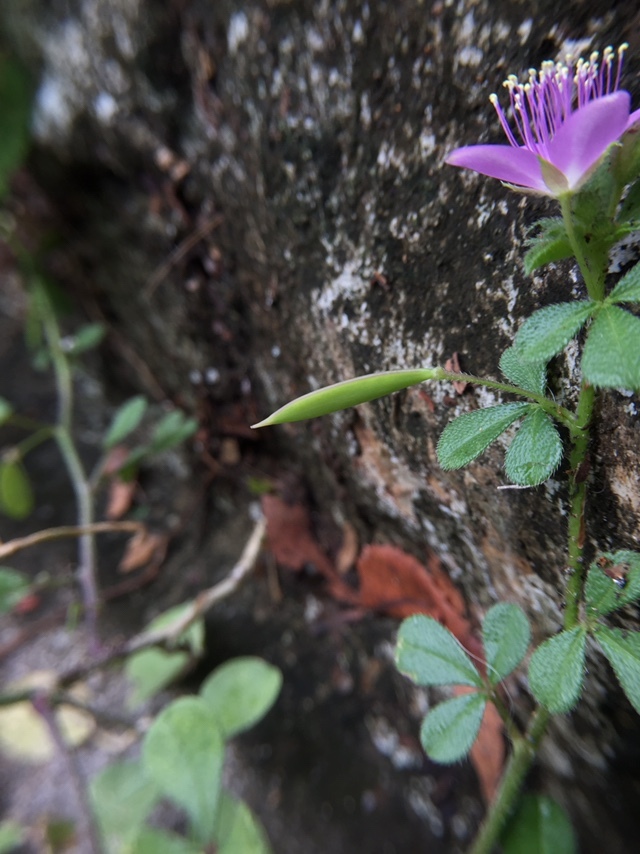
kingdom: Plantae
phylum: Tracheophyta
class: Magnoliopsida
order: Brassicales
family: Cleomaceae
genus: Corynandra
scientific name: Corynandra felina
